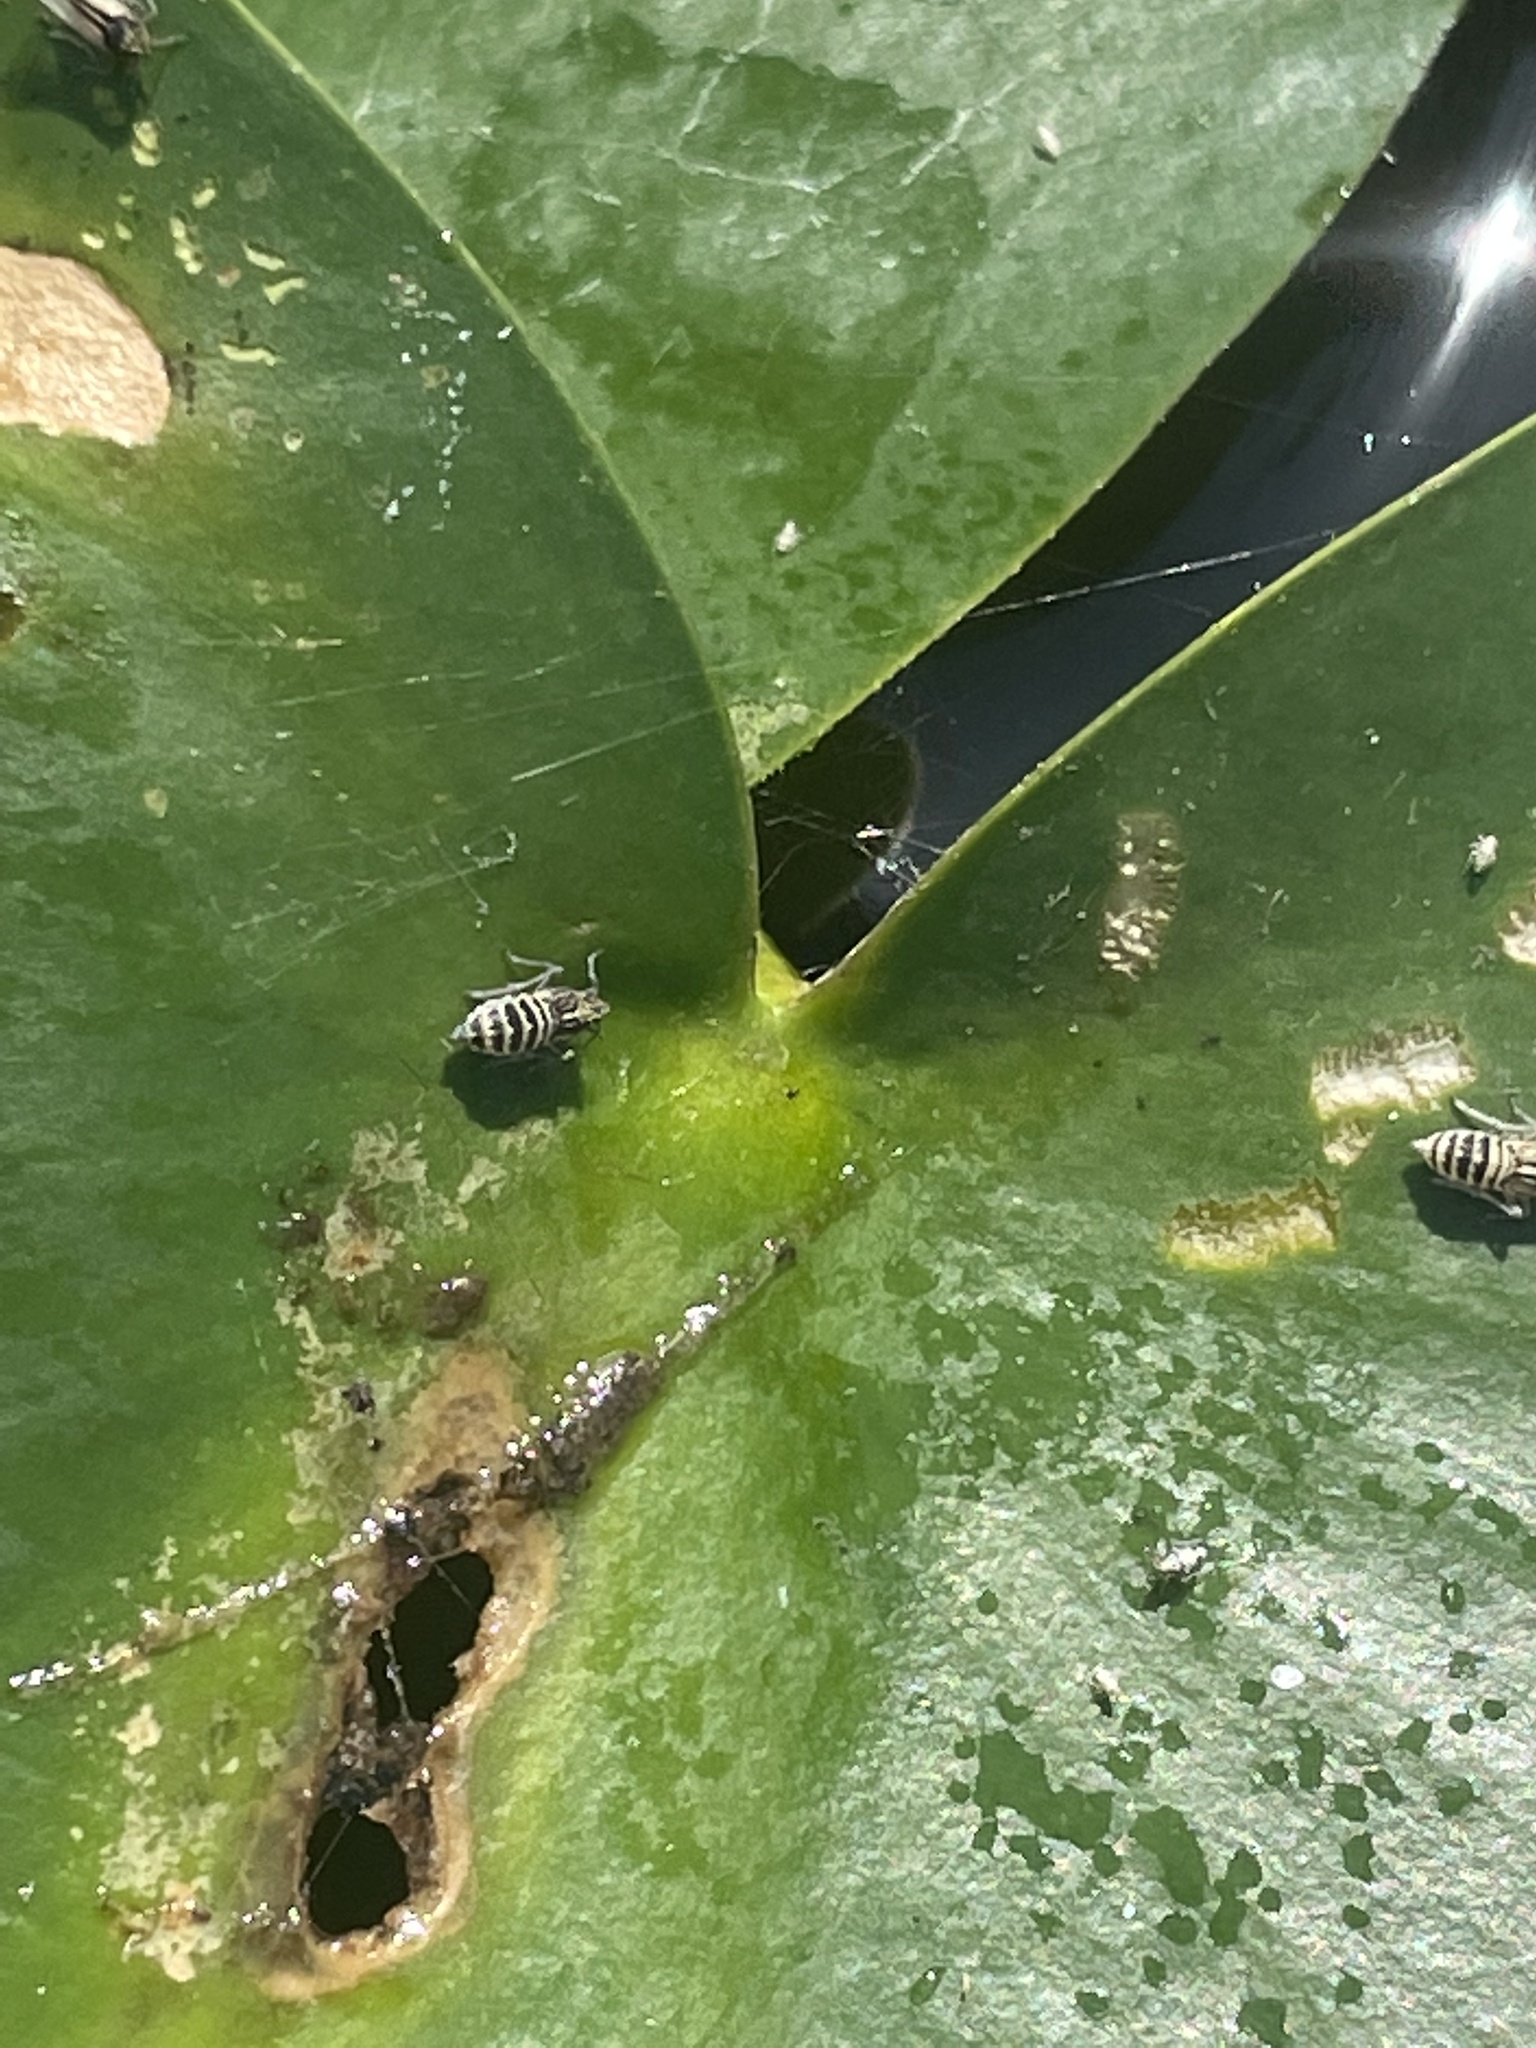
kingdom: Animalia
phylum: Arthropoda
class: Insecta
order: Hemiptera
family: Delphacidae
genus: Megamelus
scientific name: Megamelus davisi
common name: Planthopper
